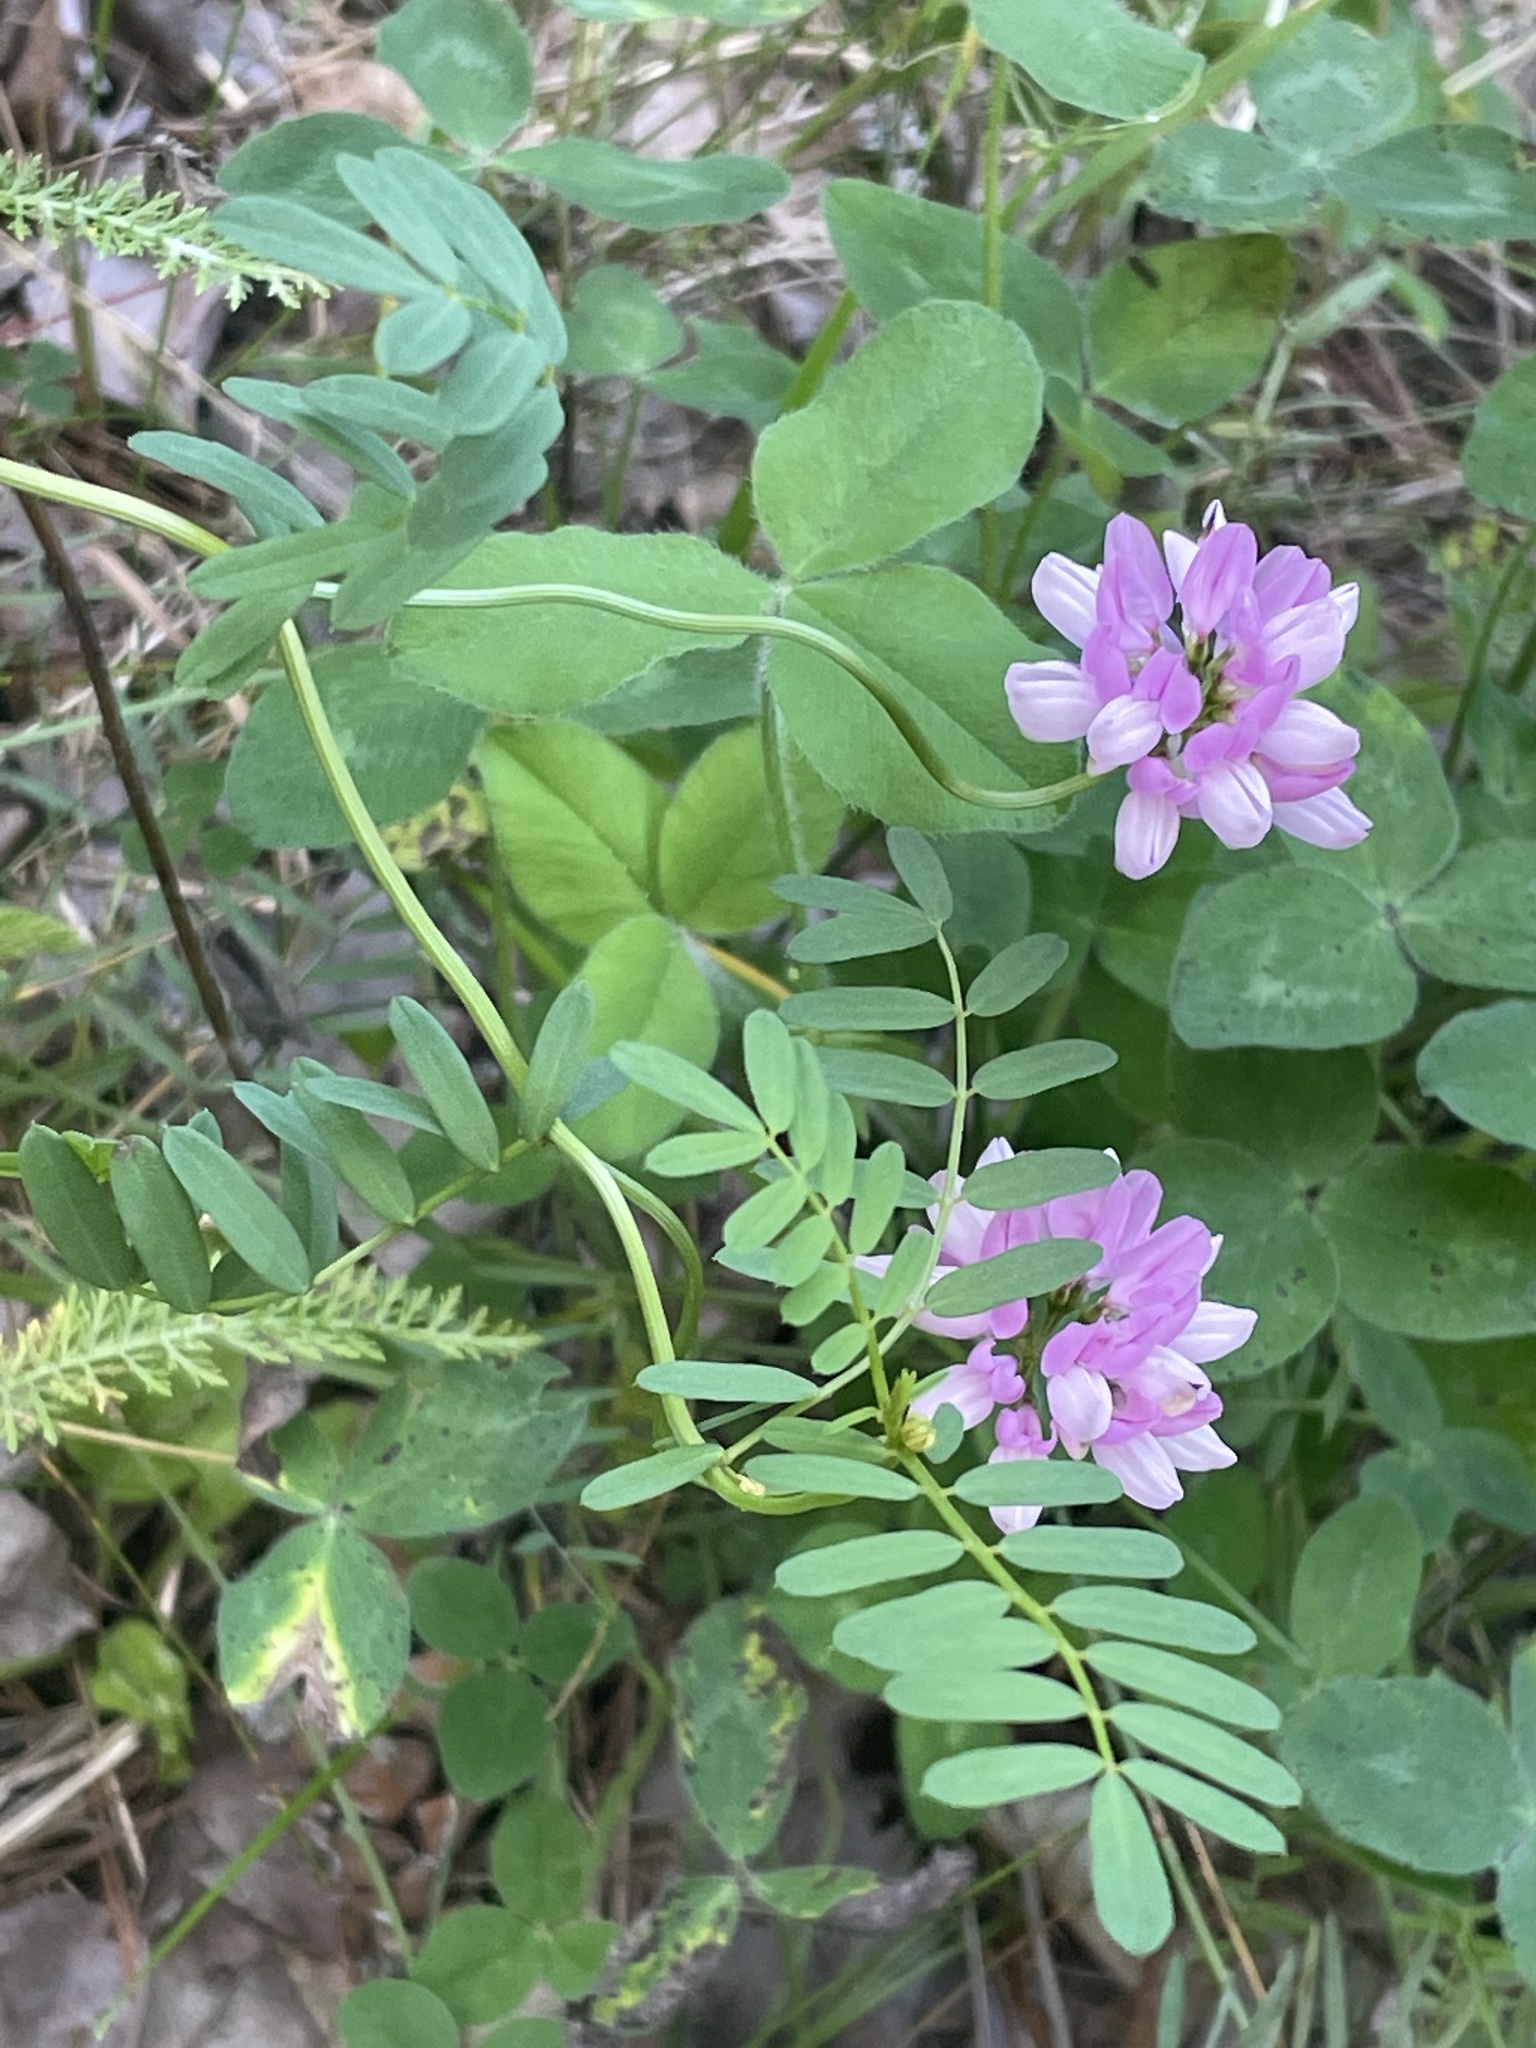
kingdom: Plantae
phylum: Tracheophyta
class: Magnoliopsida
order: Fabales
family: Fabaceae
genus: Coronilla
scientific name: Coronilla varia
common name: Crownvetch
